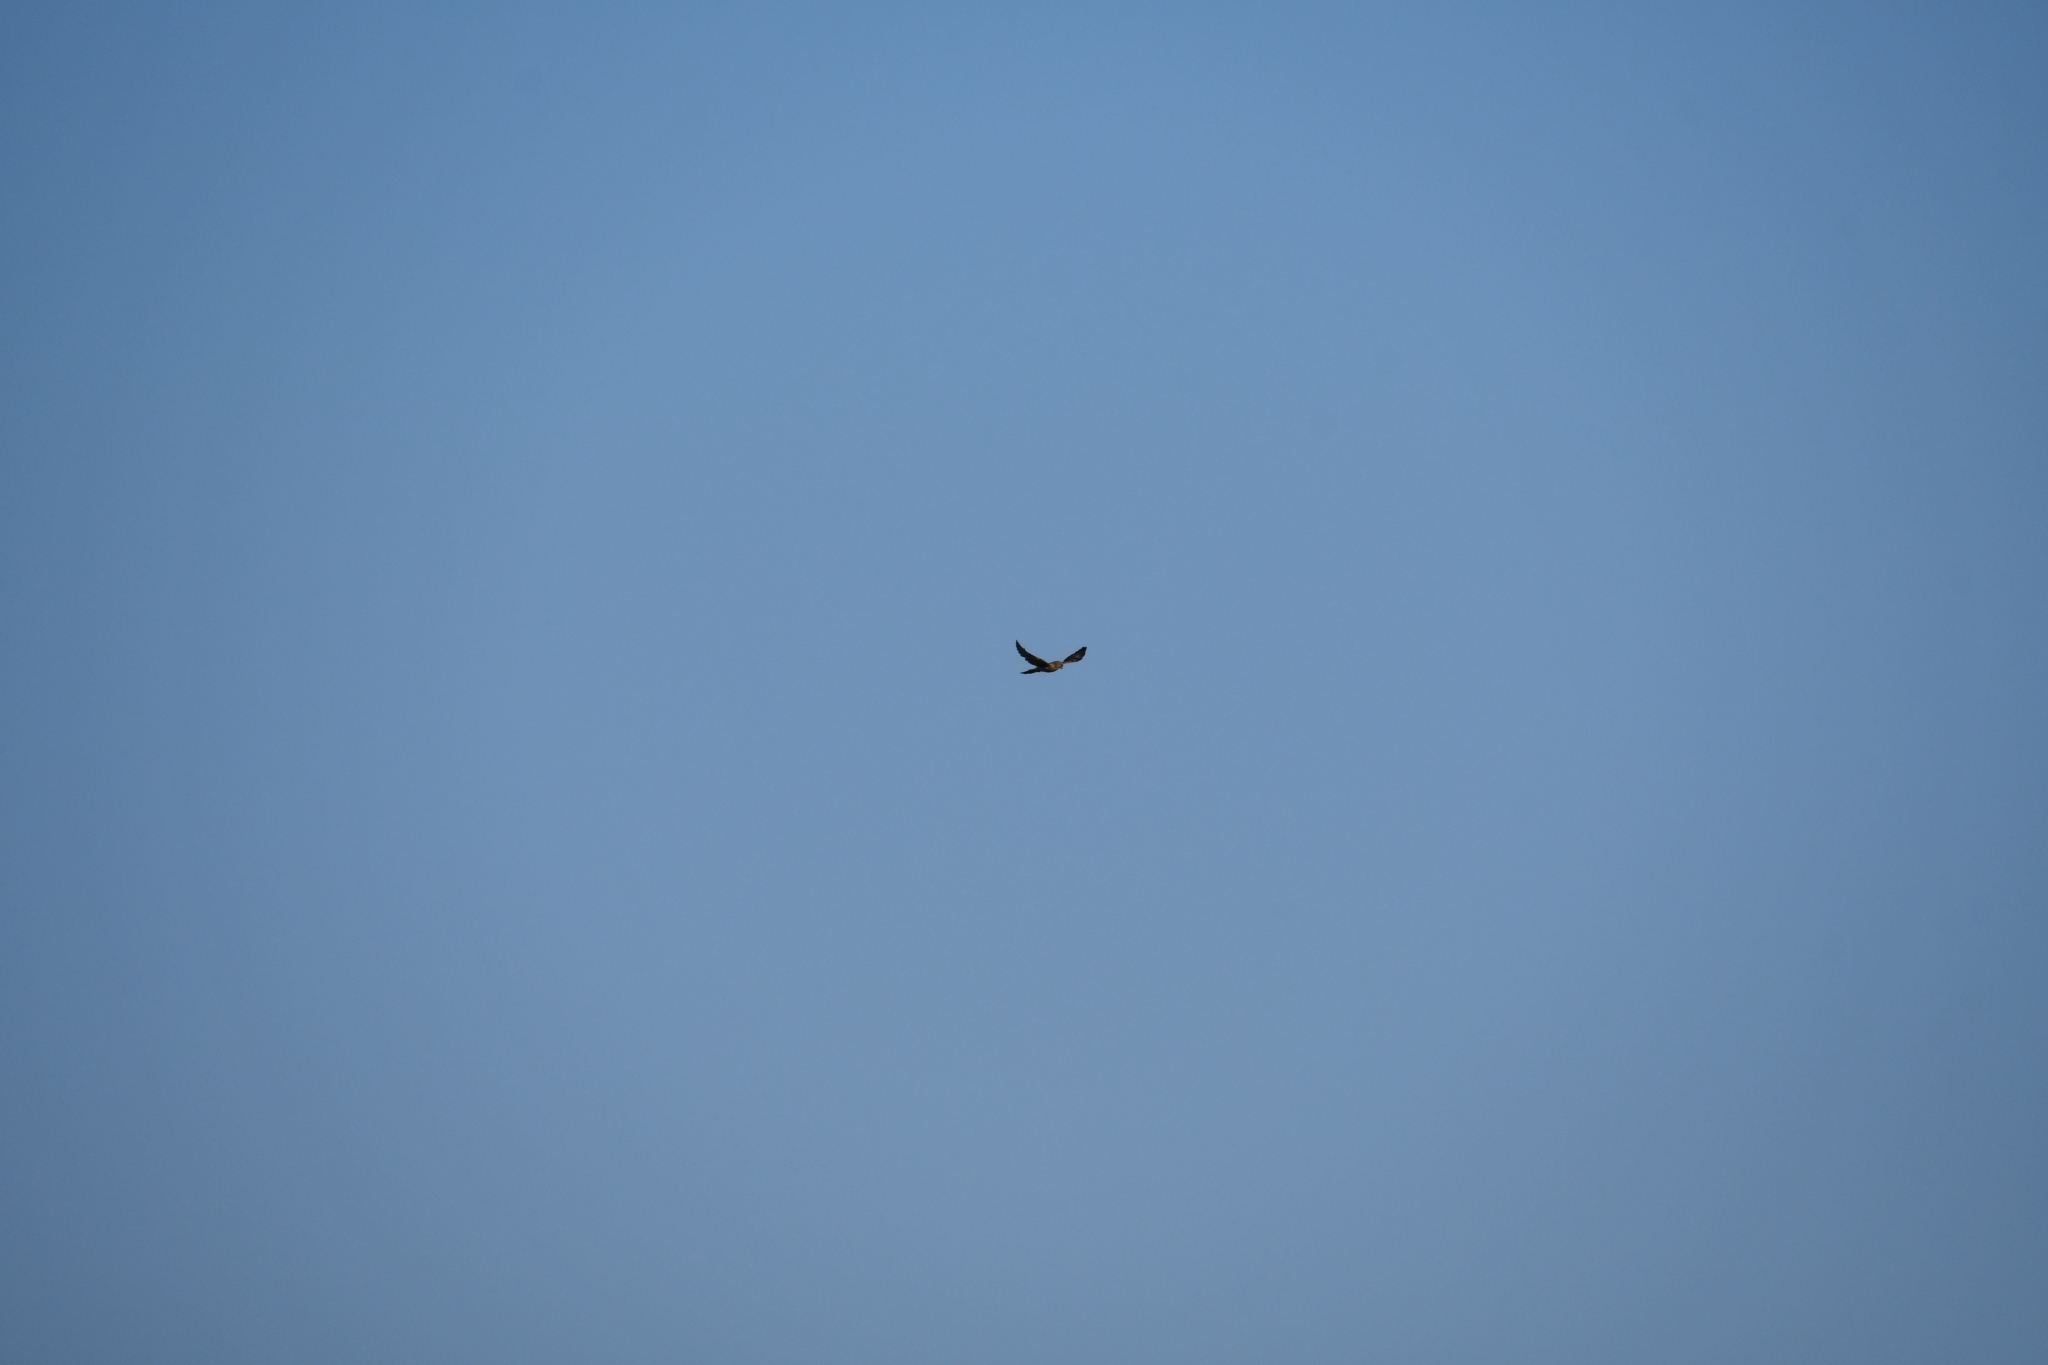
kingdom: Animalia
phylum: Chordata
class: Aves
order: Falconiformes
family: Falconidae
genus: Falco
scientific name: Falco tinnunculus
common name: Common kestrel
